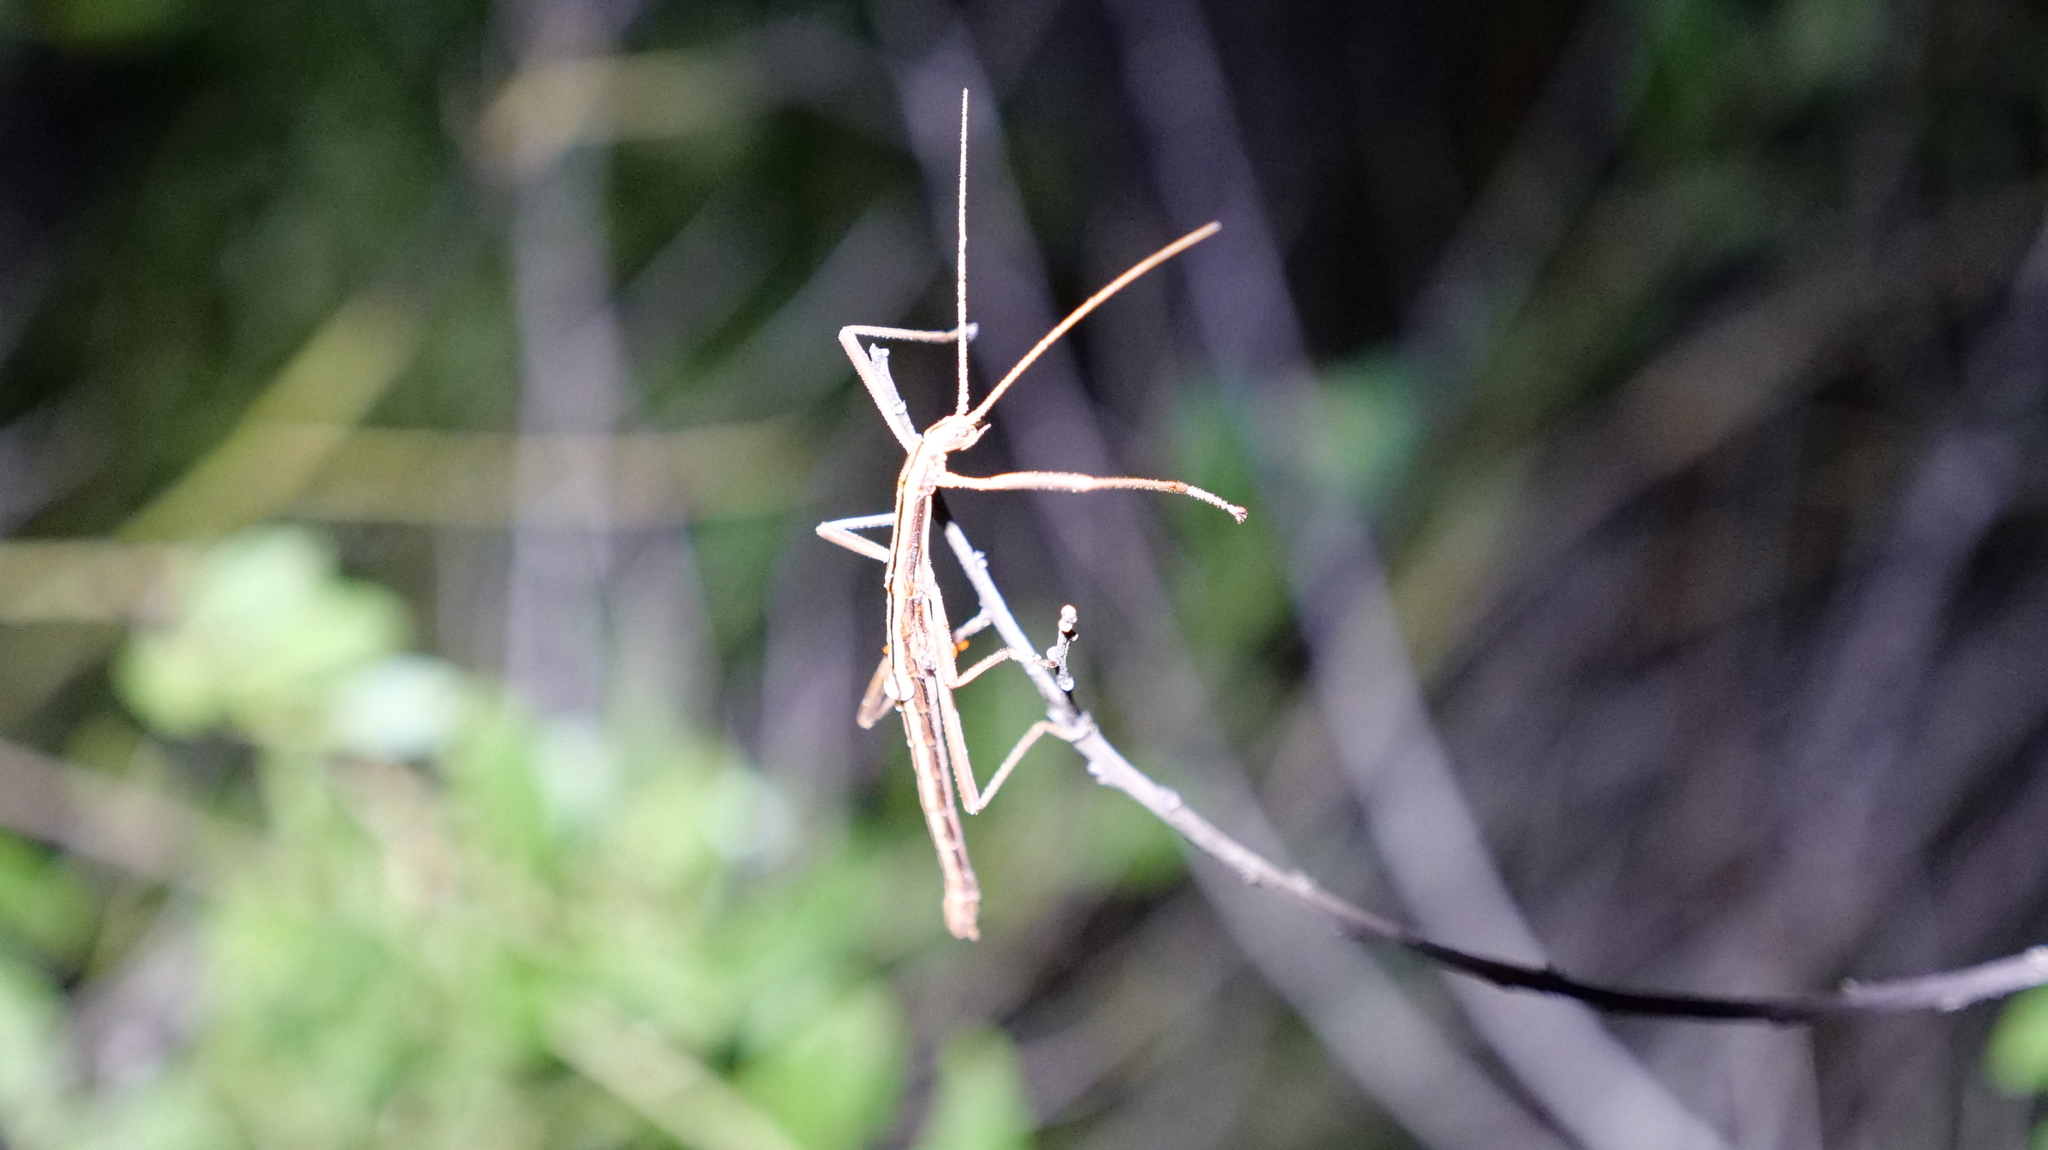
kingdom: Animalia
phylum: Arthropoda
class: Insecta
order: Phasmida
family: Pseudophasmatidae
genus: Anisomorpha
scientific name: Anisomorpha buprestoides
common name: Florida stick insect
